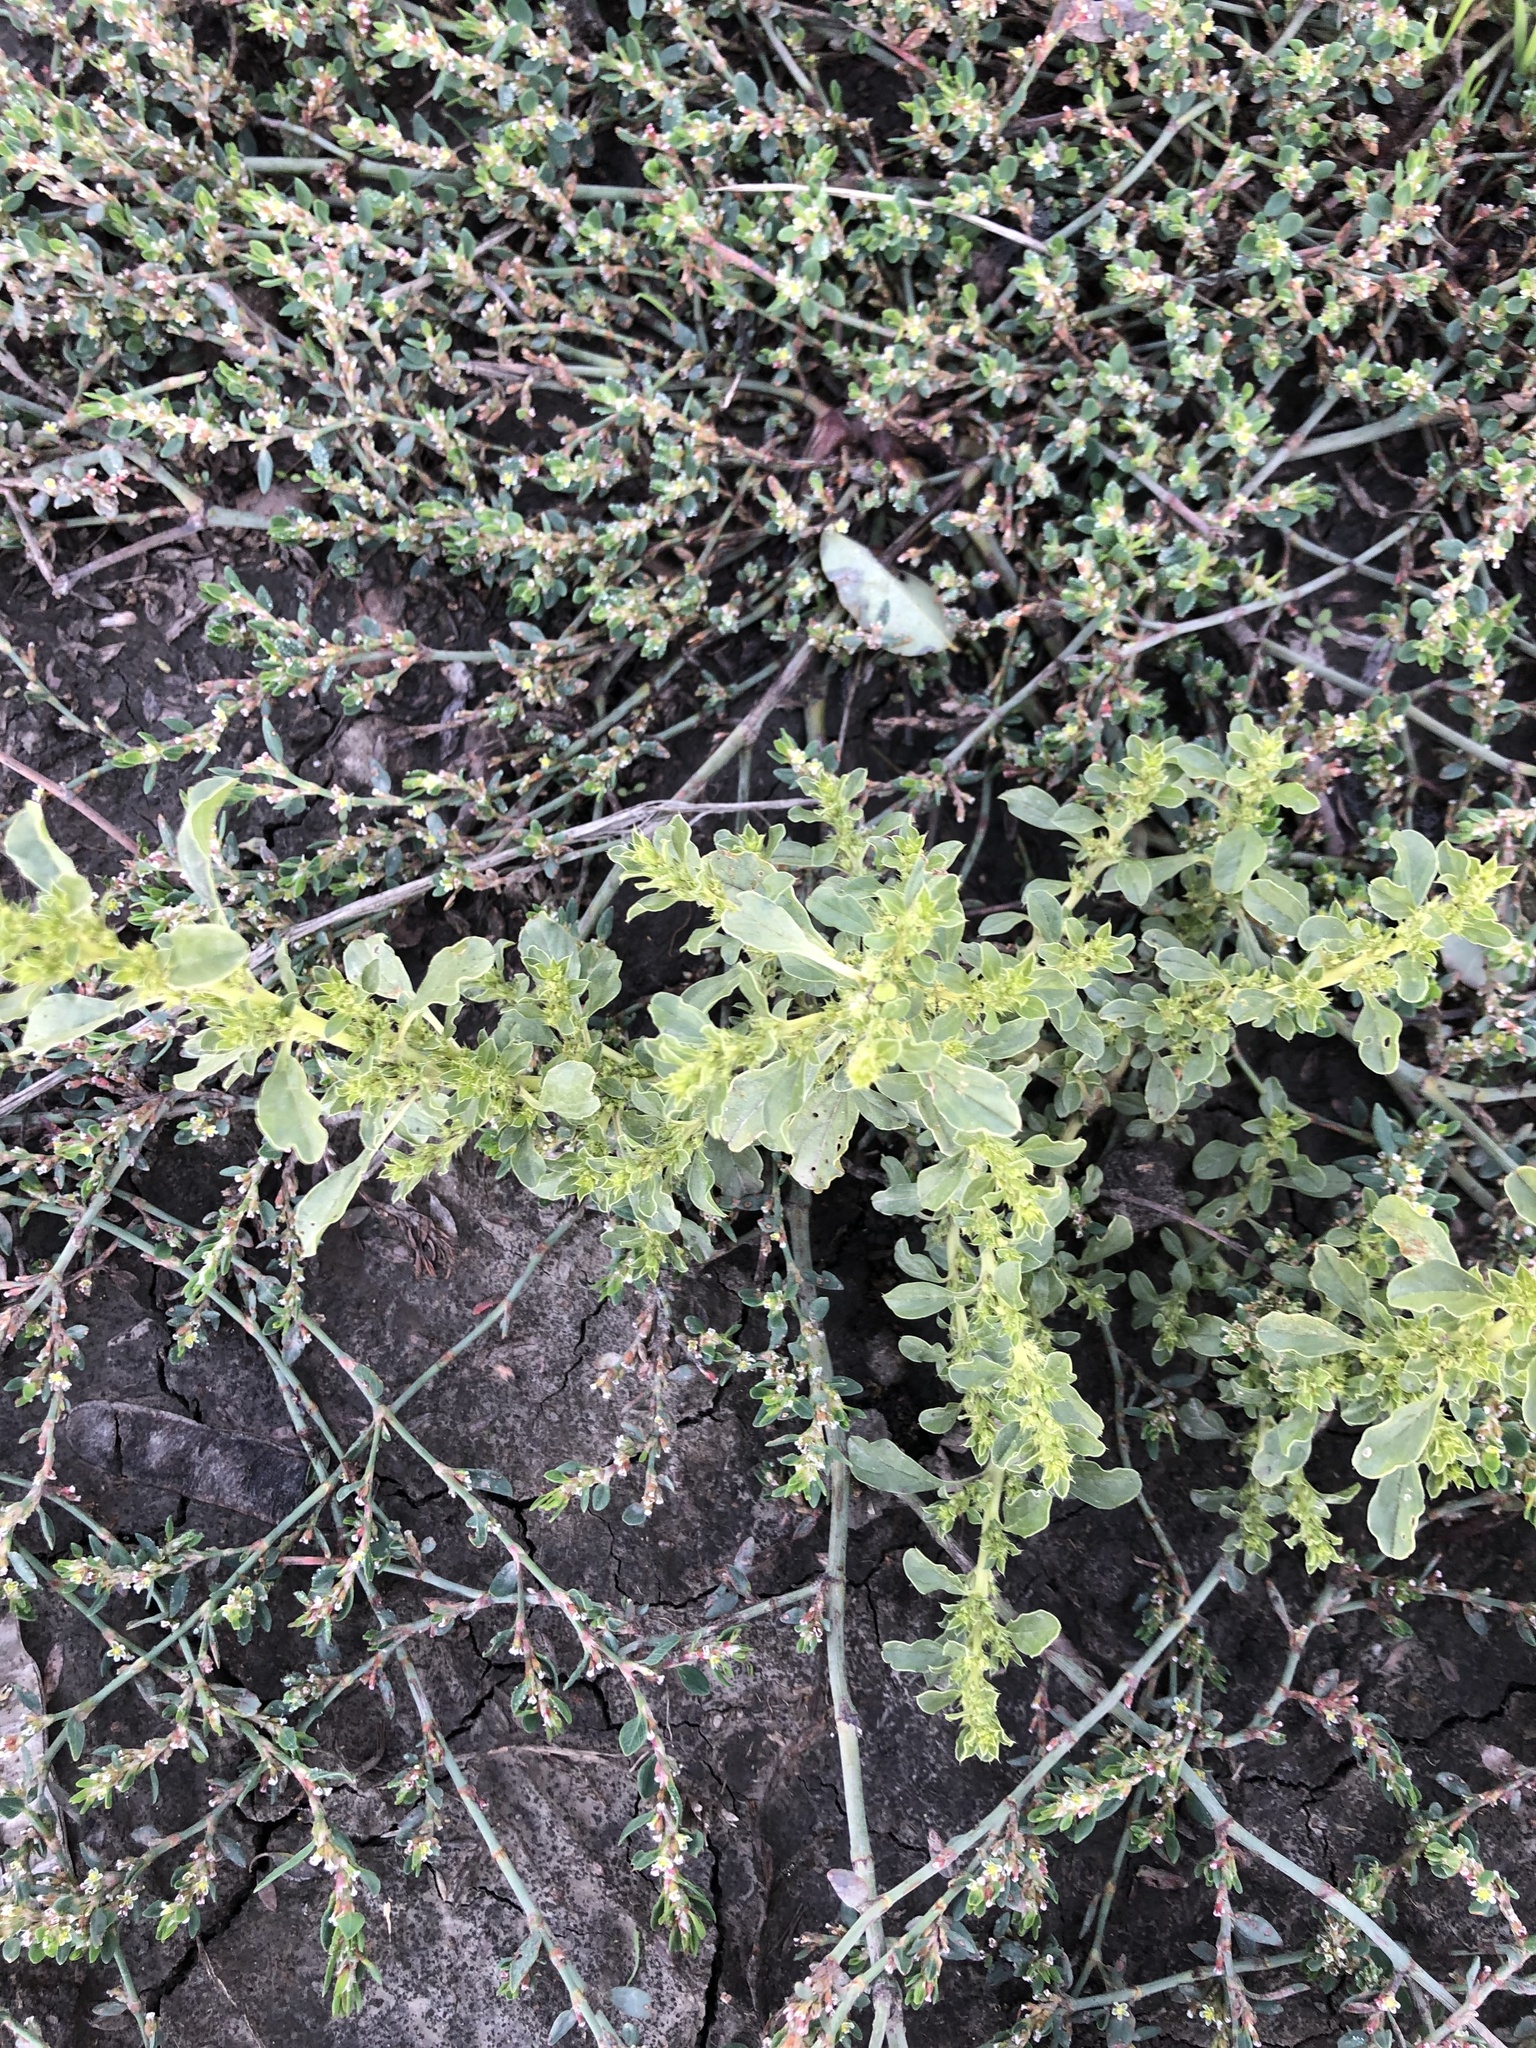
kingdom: Plantae
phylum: Tracheophyta
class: Magnoliopsida
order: Caryophyllales
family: Amaranthaceae
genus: Amaranthus
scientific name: Amaranthus albus
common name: White pigweed
